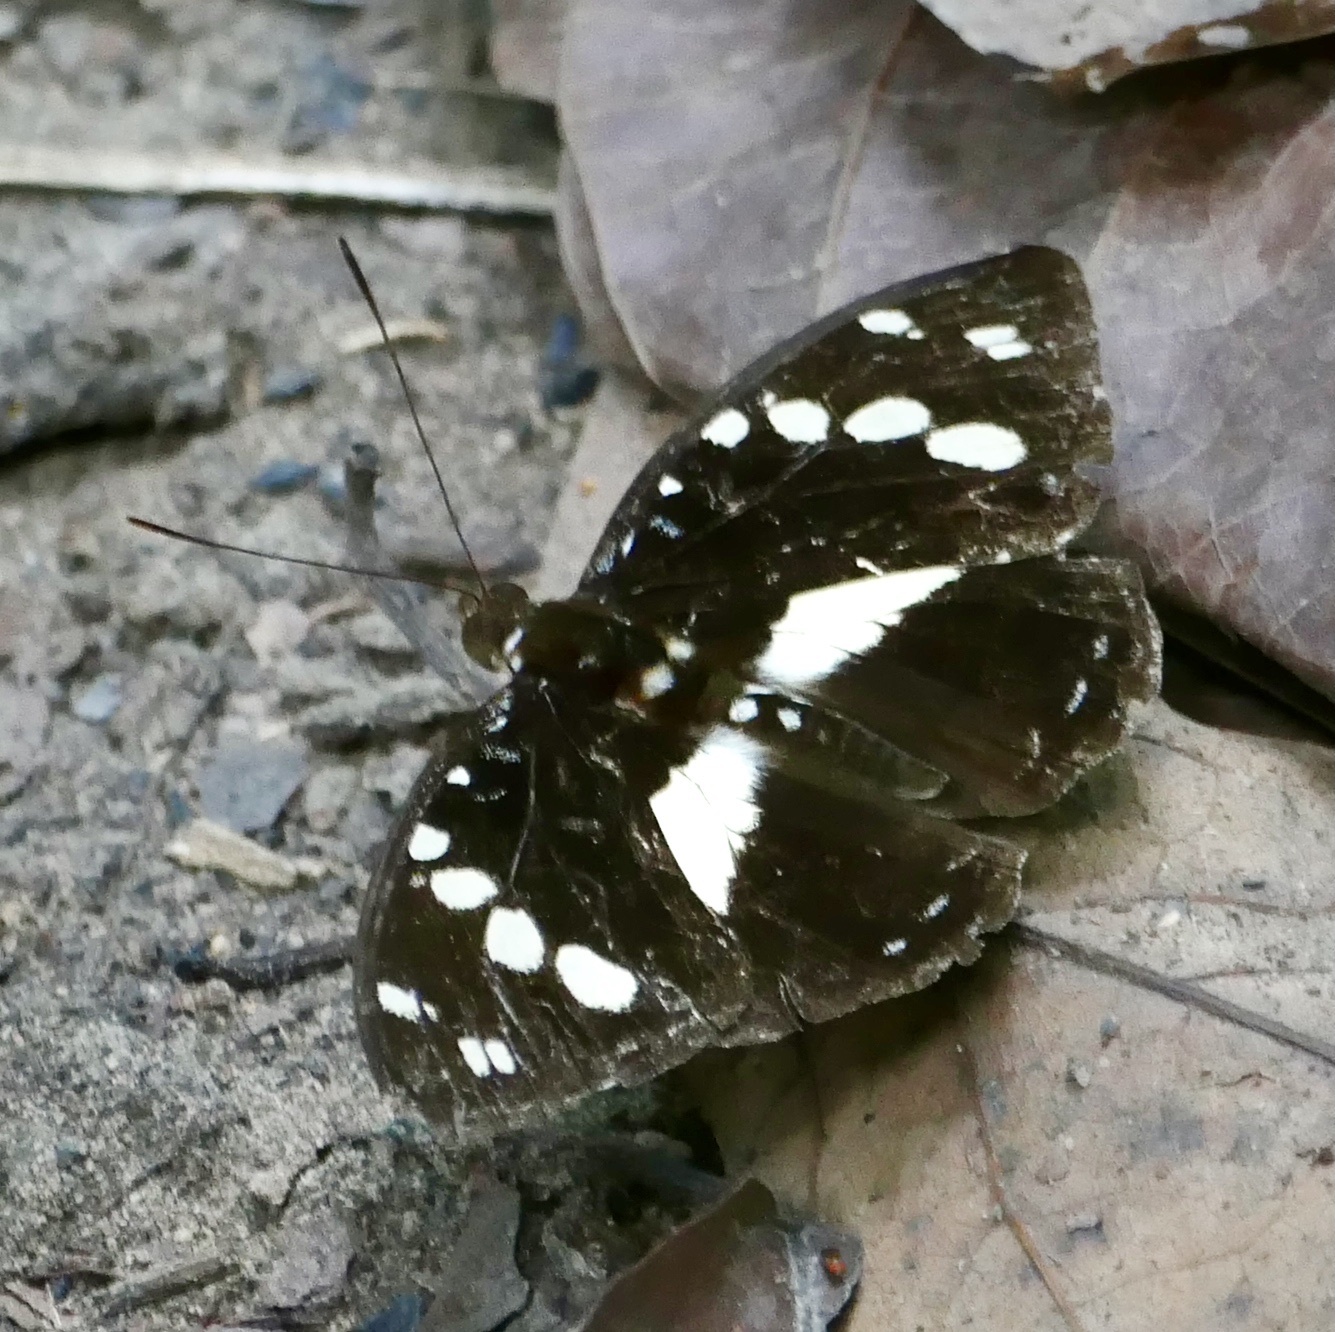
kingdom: Animalia
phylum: Arthropoda
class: Insecta
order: Lepidoptera
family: Nymphalidae
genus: Aterica
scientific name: Aterica galene
